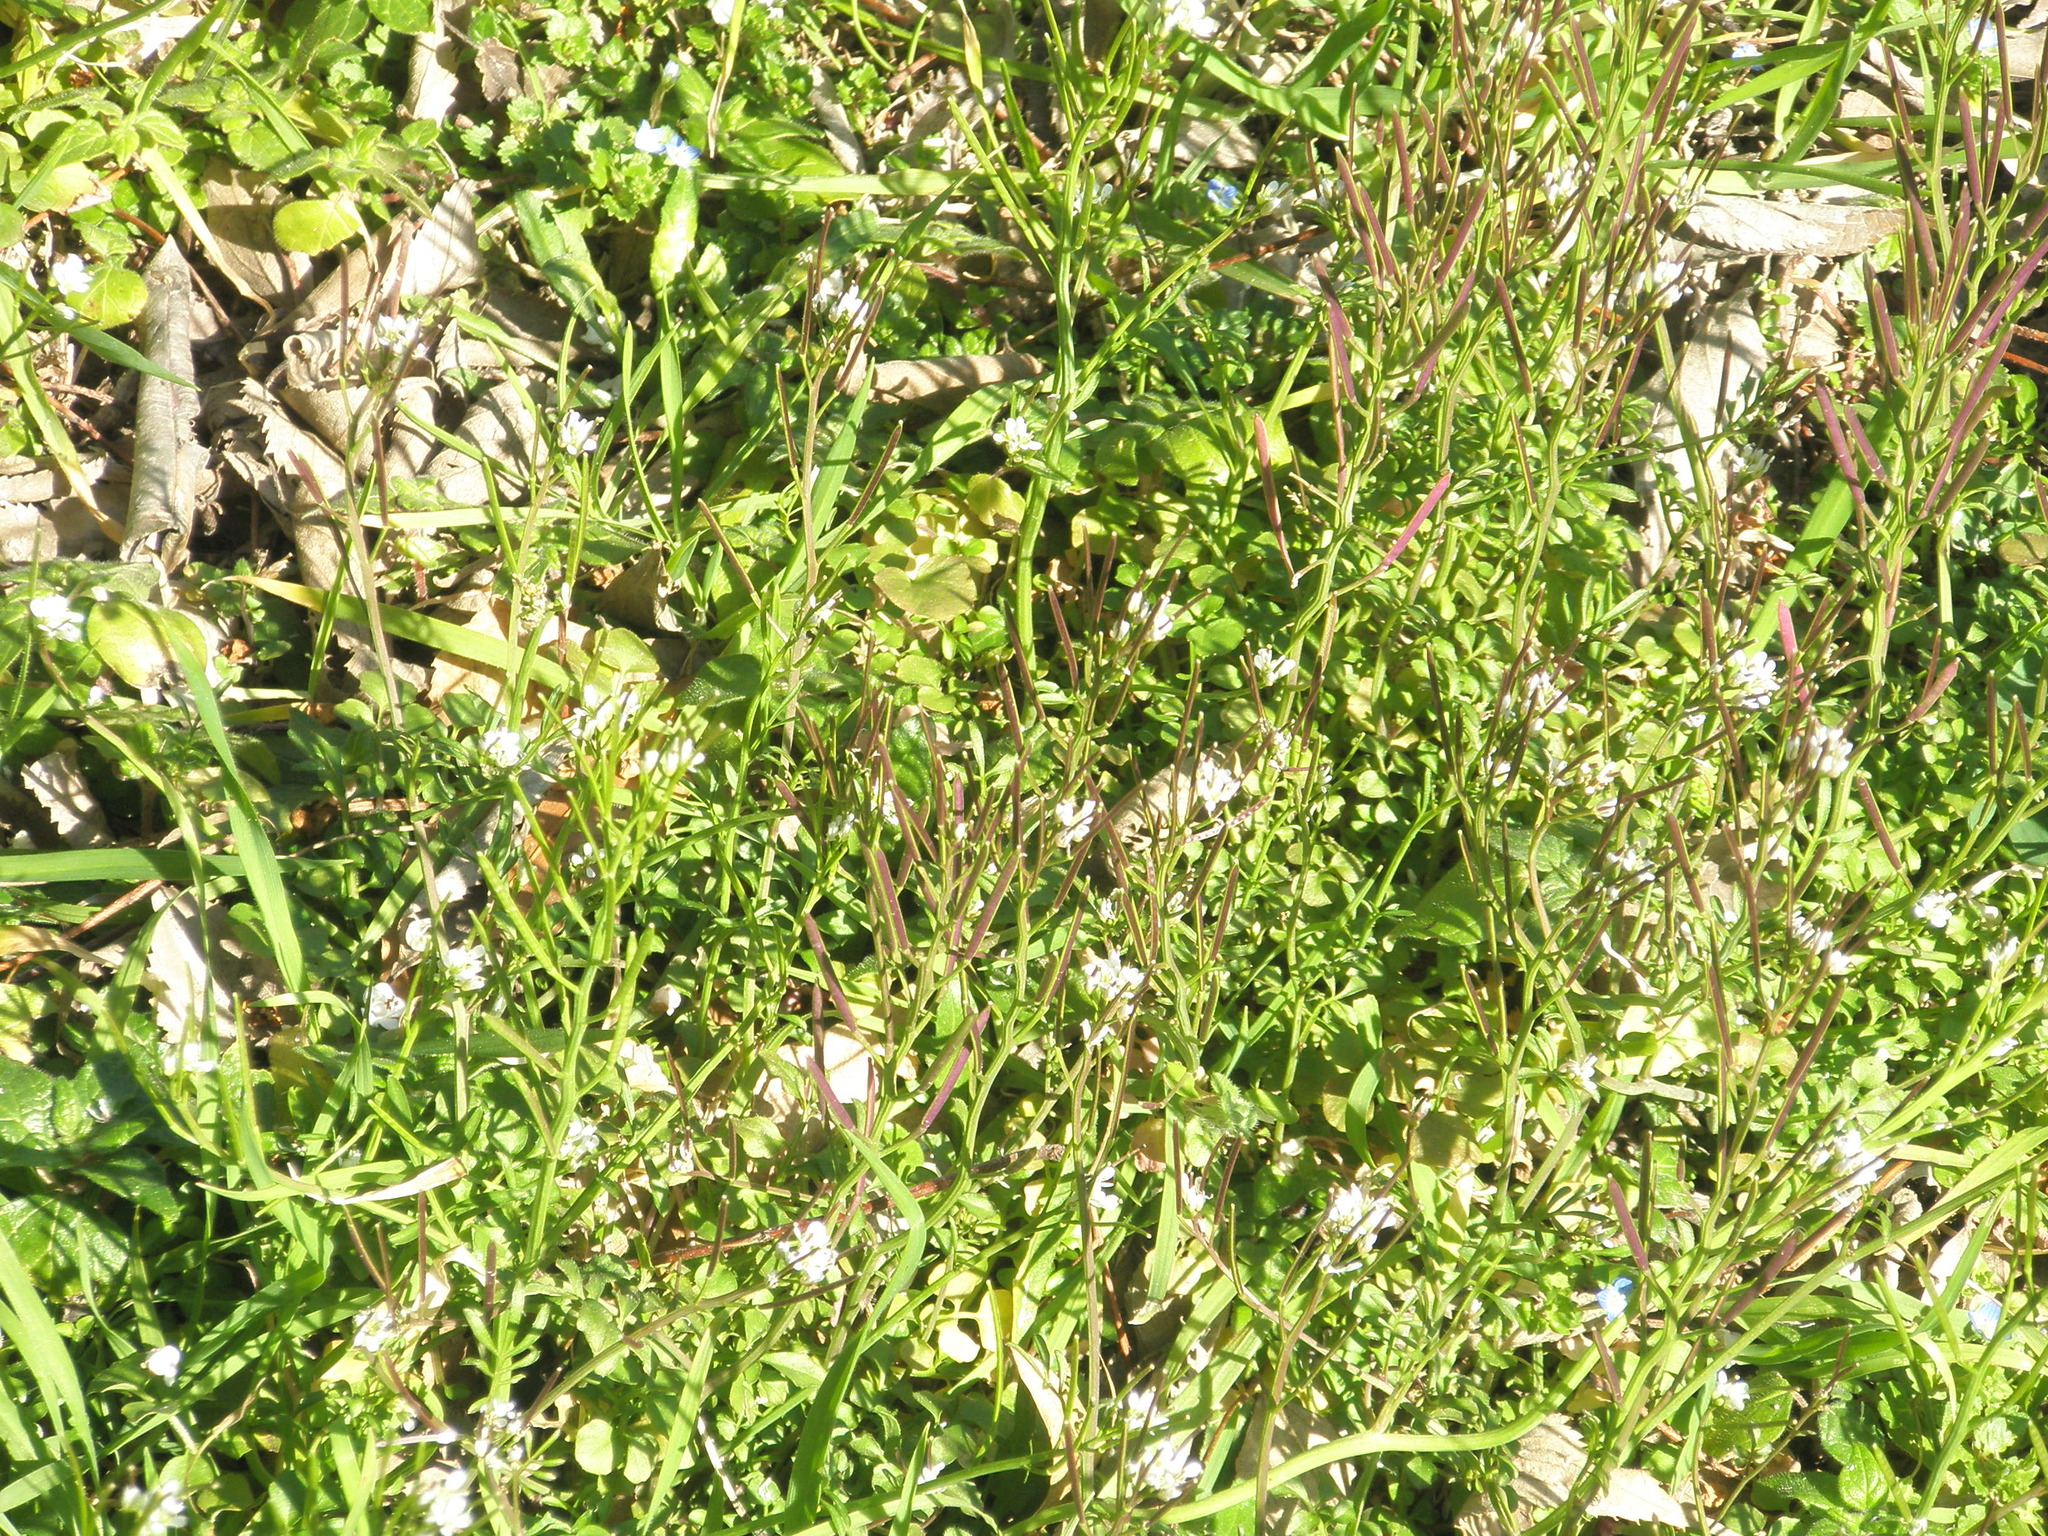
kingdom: Plantae
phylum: Tracheophyta
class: Magnoliopsida
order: Brassicales
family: Brassicaceae
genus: Cardamine
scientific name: Cardamine hirsuta
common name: Hairy bittercress
